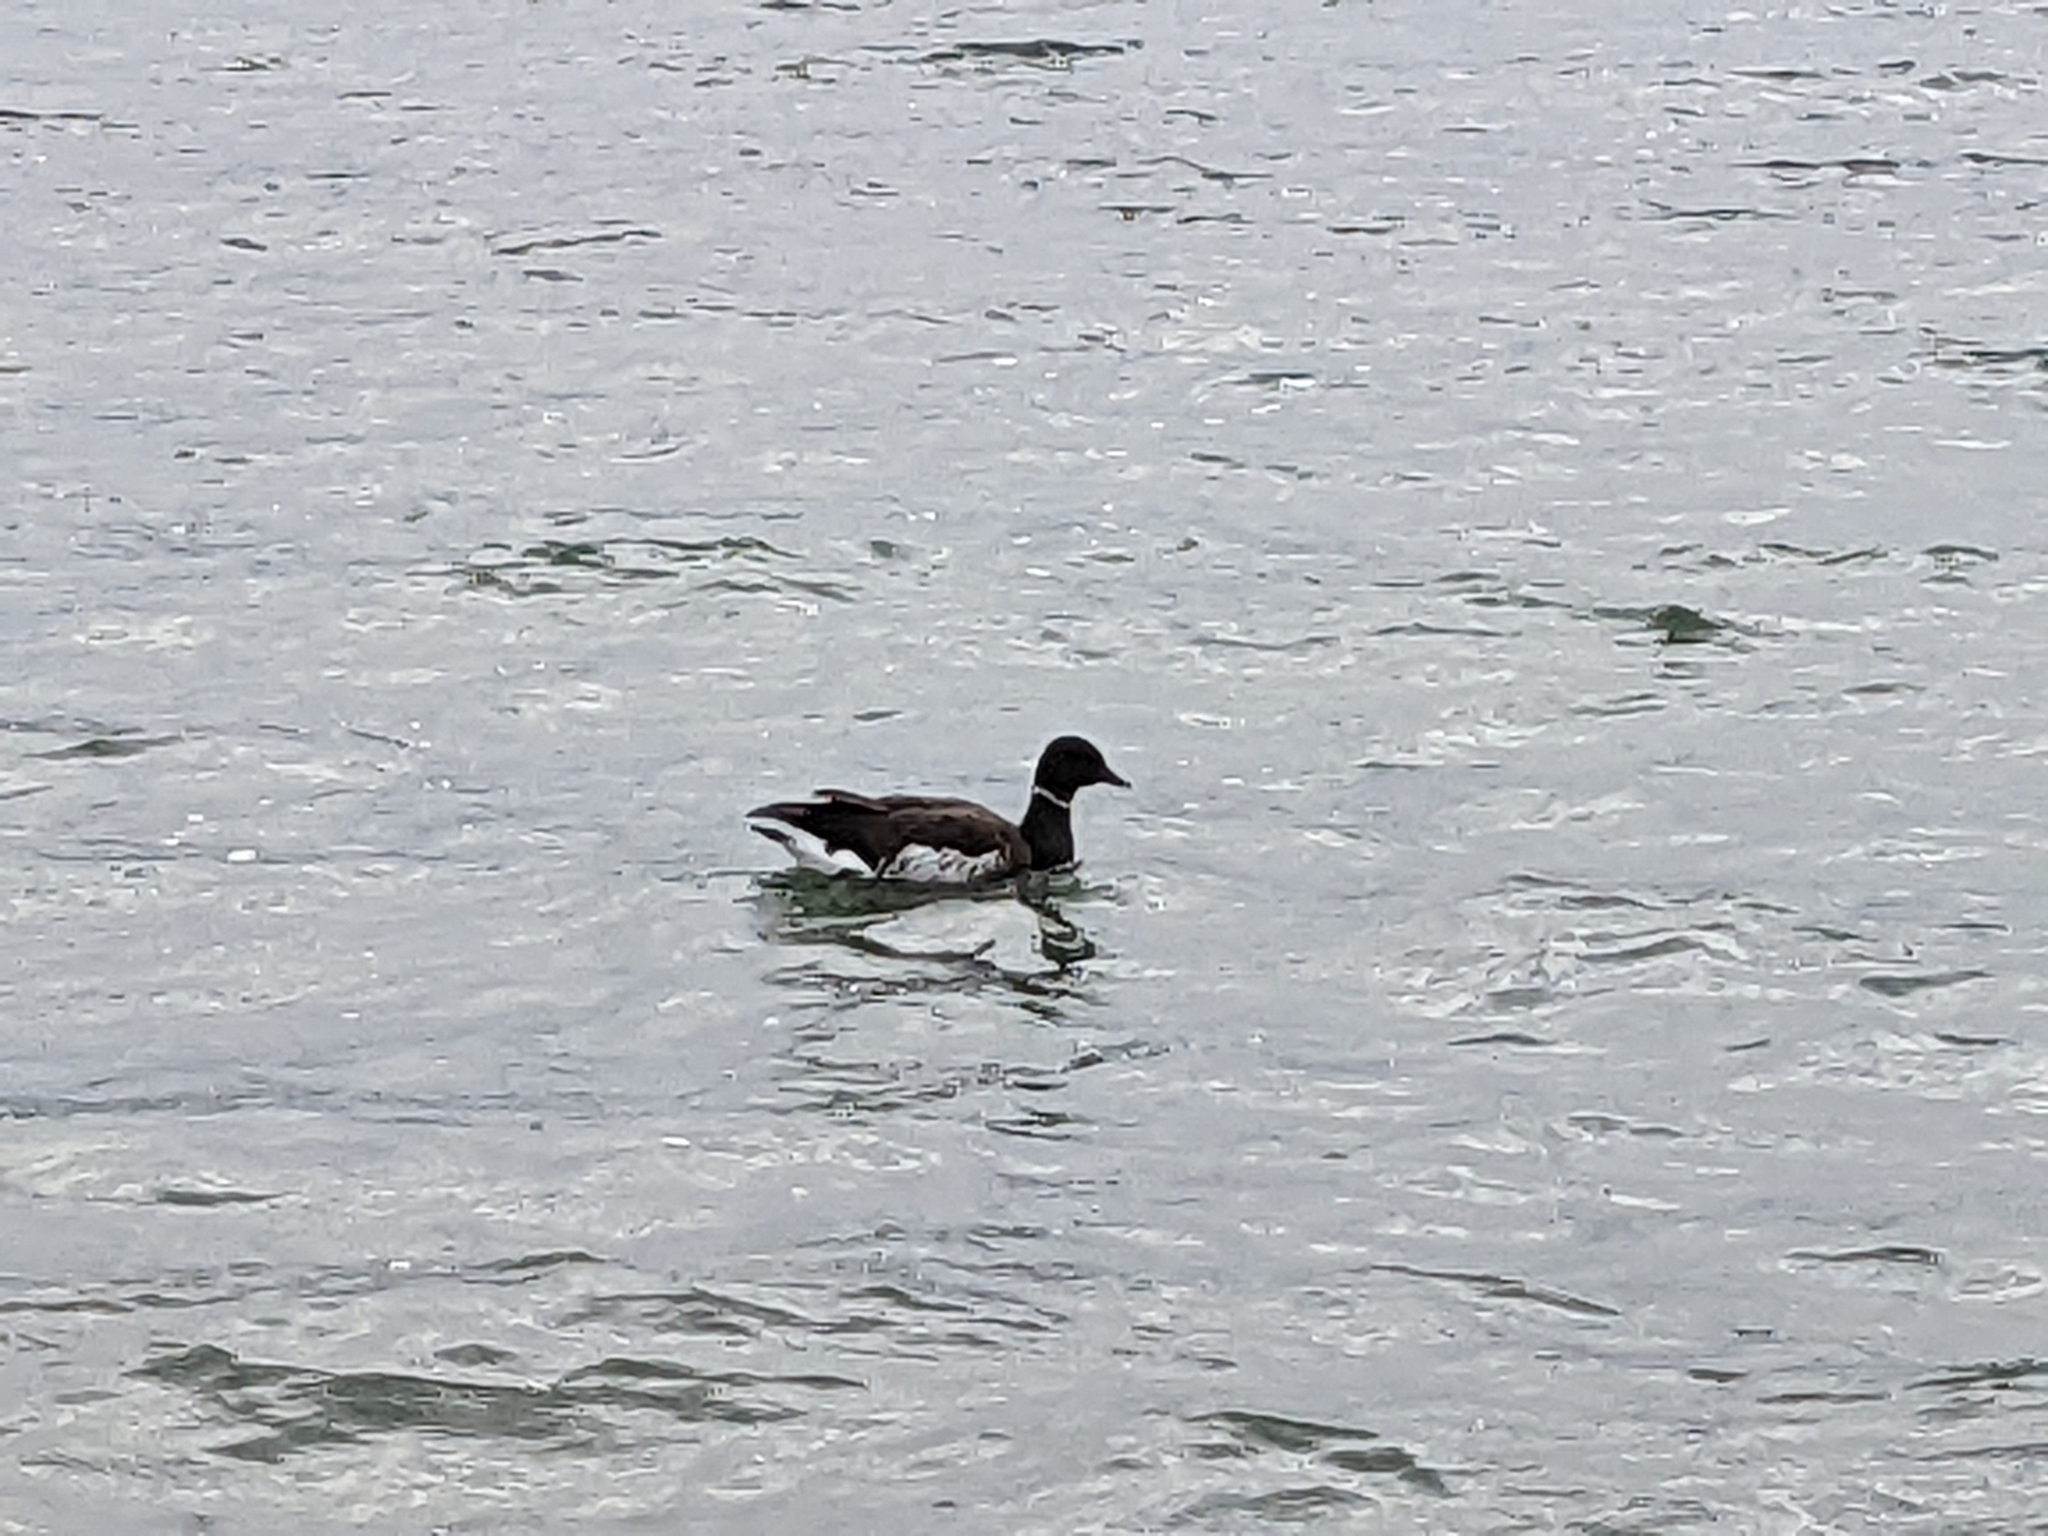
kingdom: Animalia
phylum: Chordata
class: Aves
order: Anseriformes
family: Anatidae
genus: Branta
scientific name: Branta bernicla
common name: Brant goose
